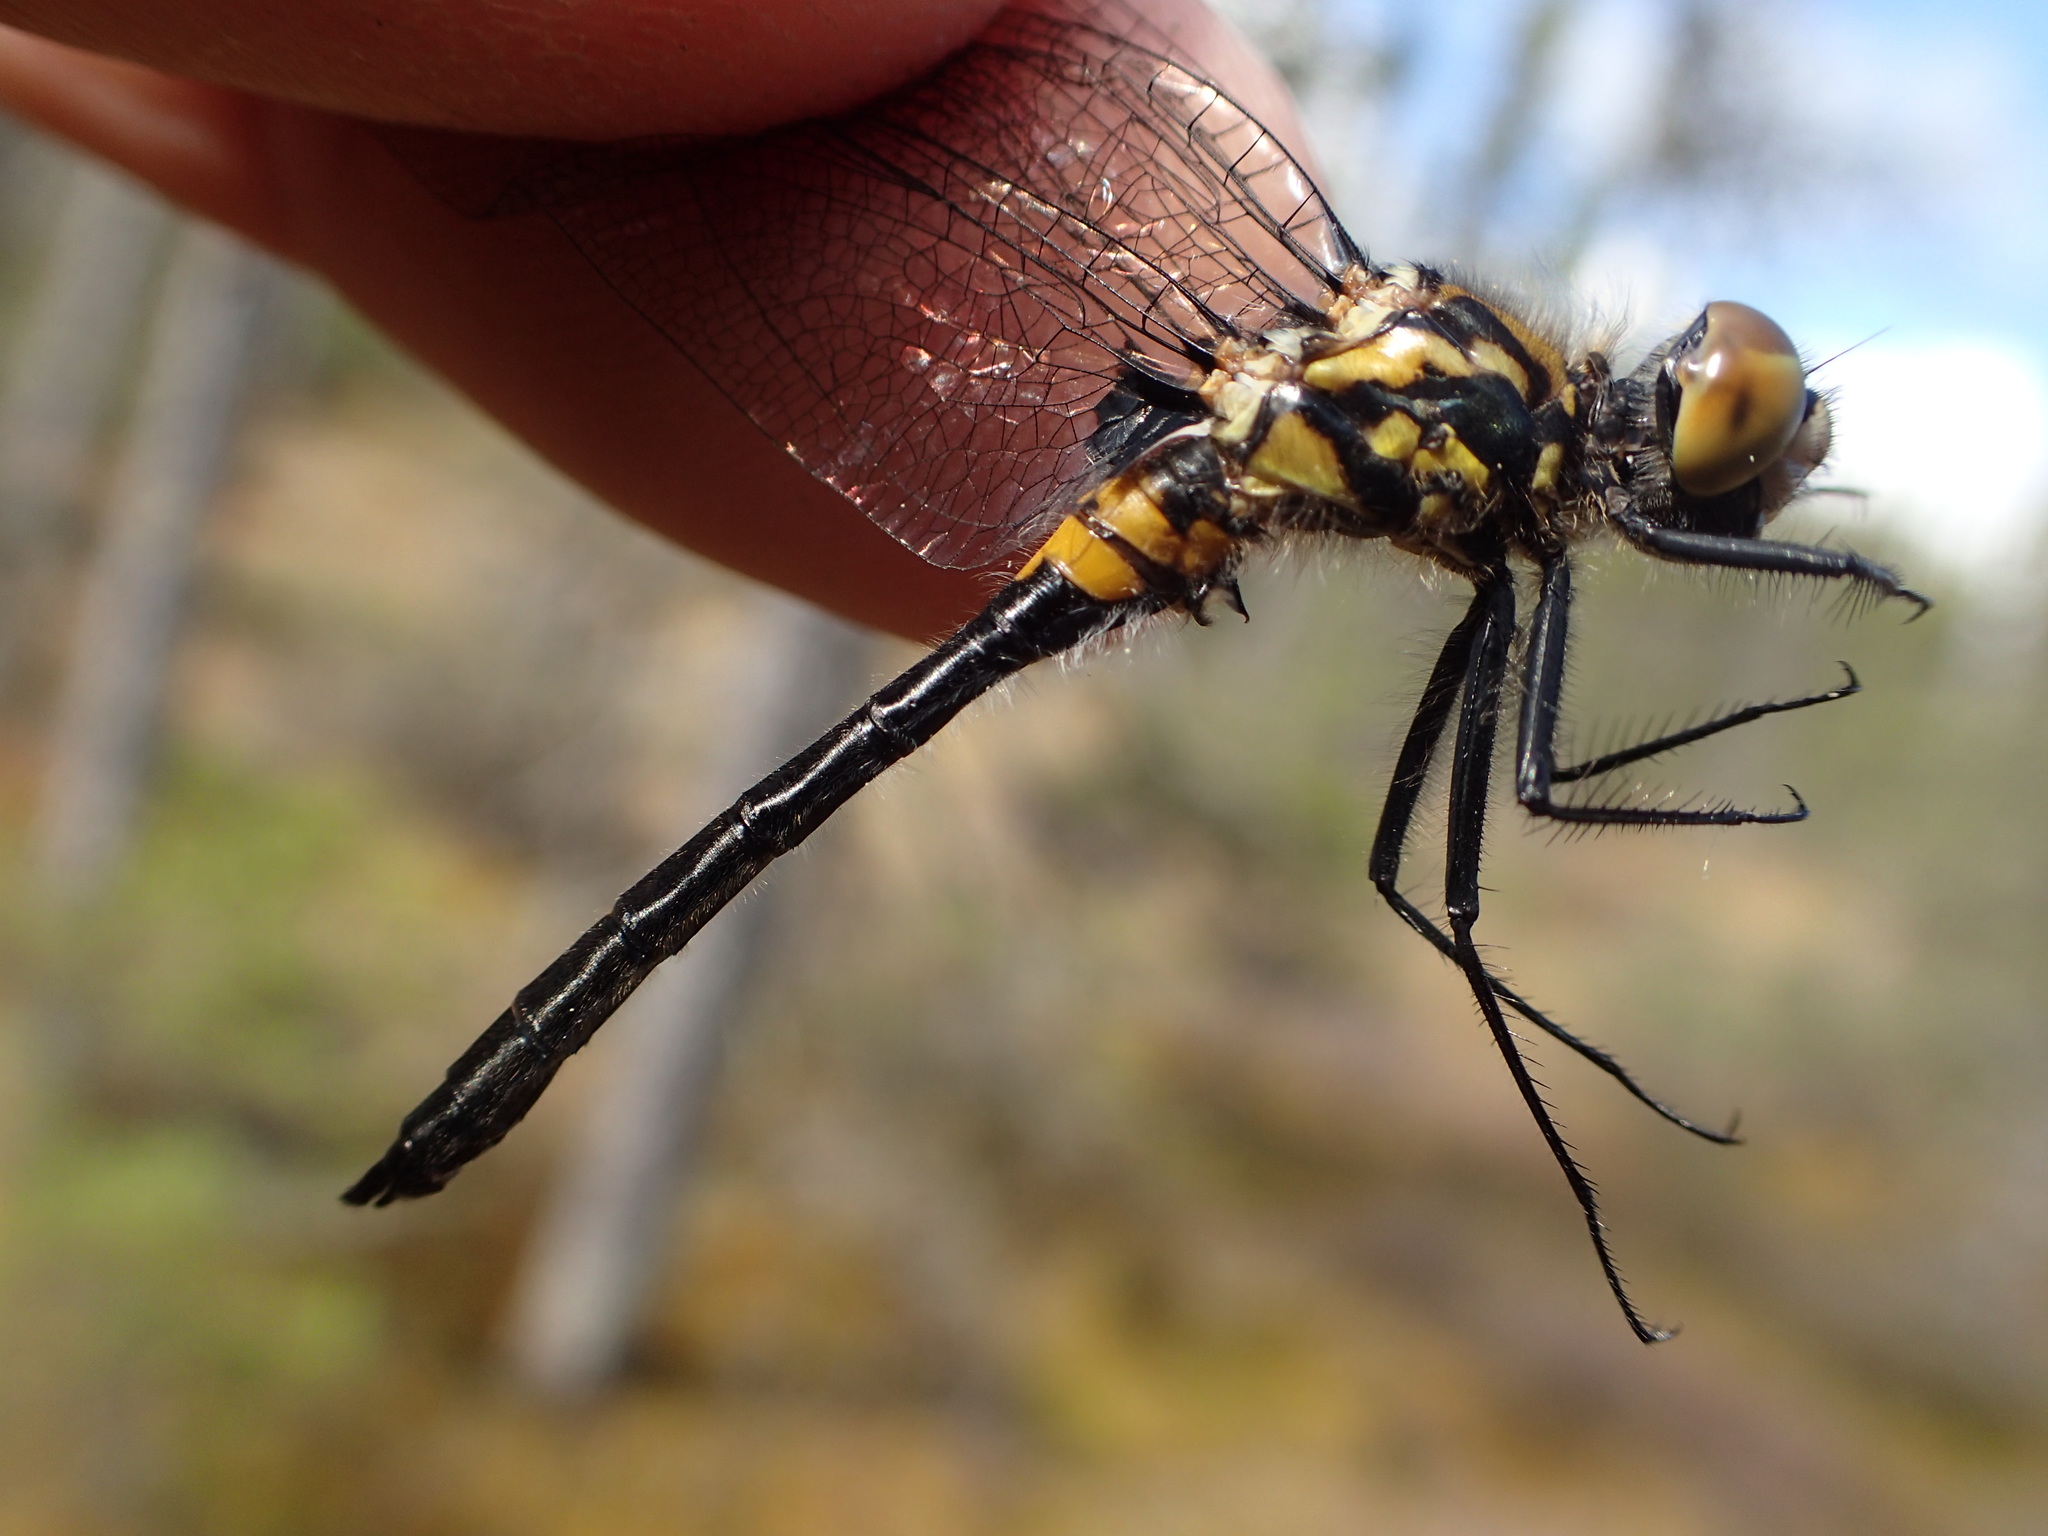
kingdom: Animalia
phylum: Arthropoda
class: Insecta
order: Odonata
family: Libellulidae
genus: Leucorrhinia
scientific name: Leucorrhinia glacialis
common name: Crimson-ringed whiteface
